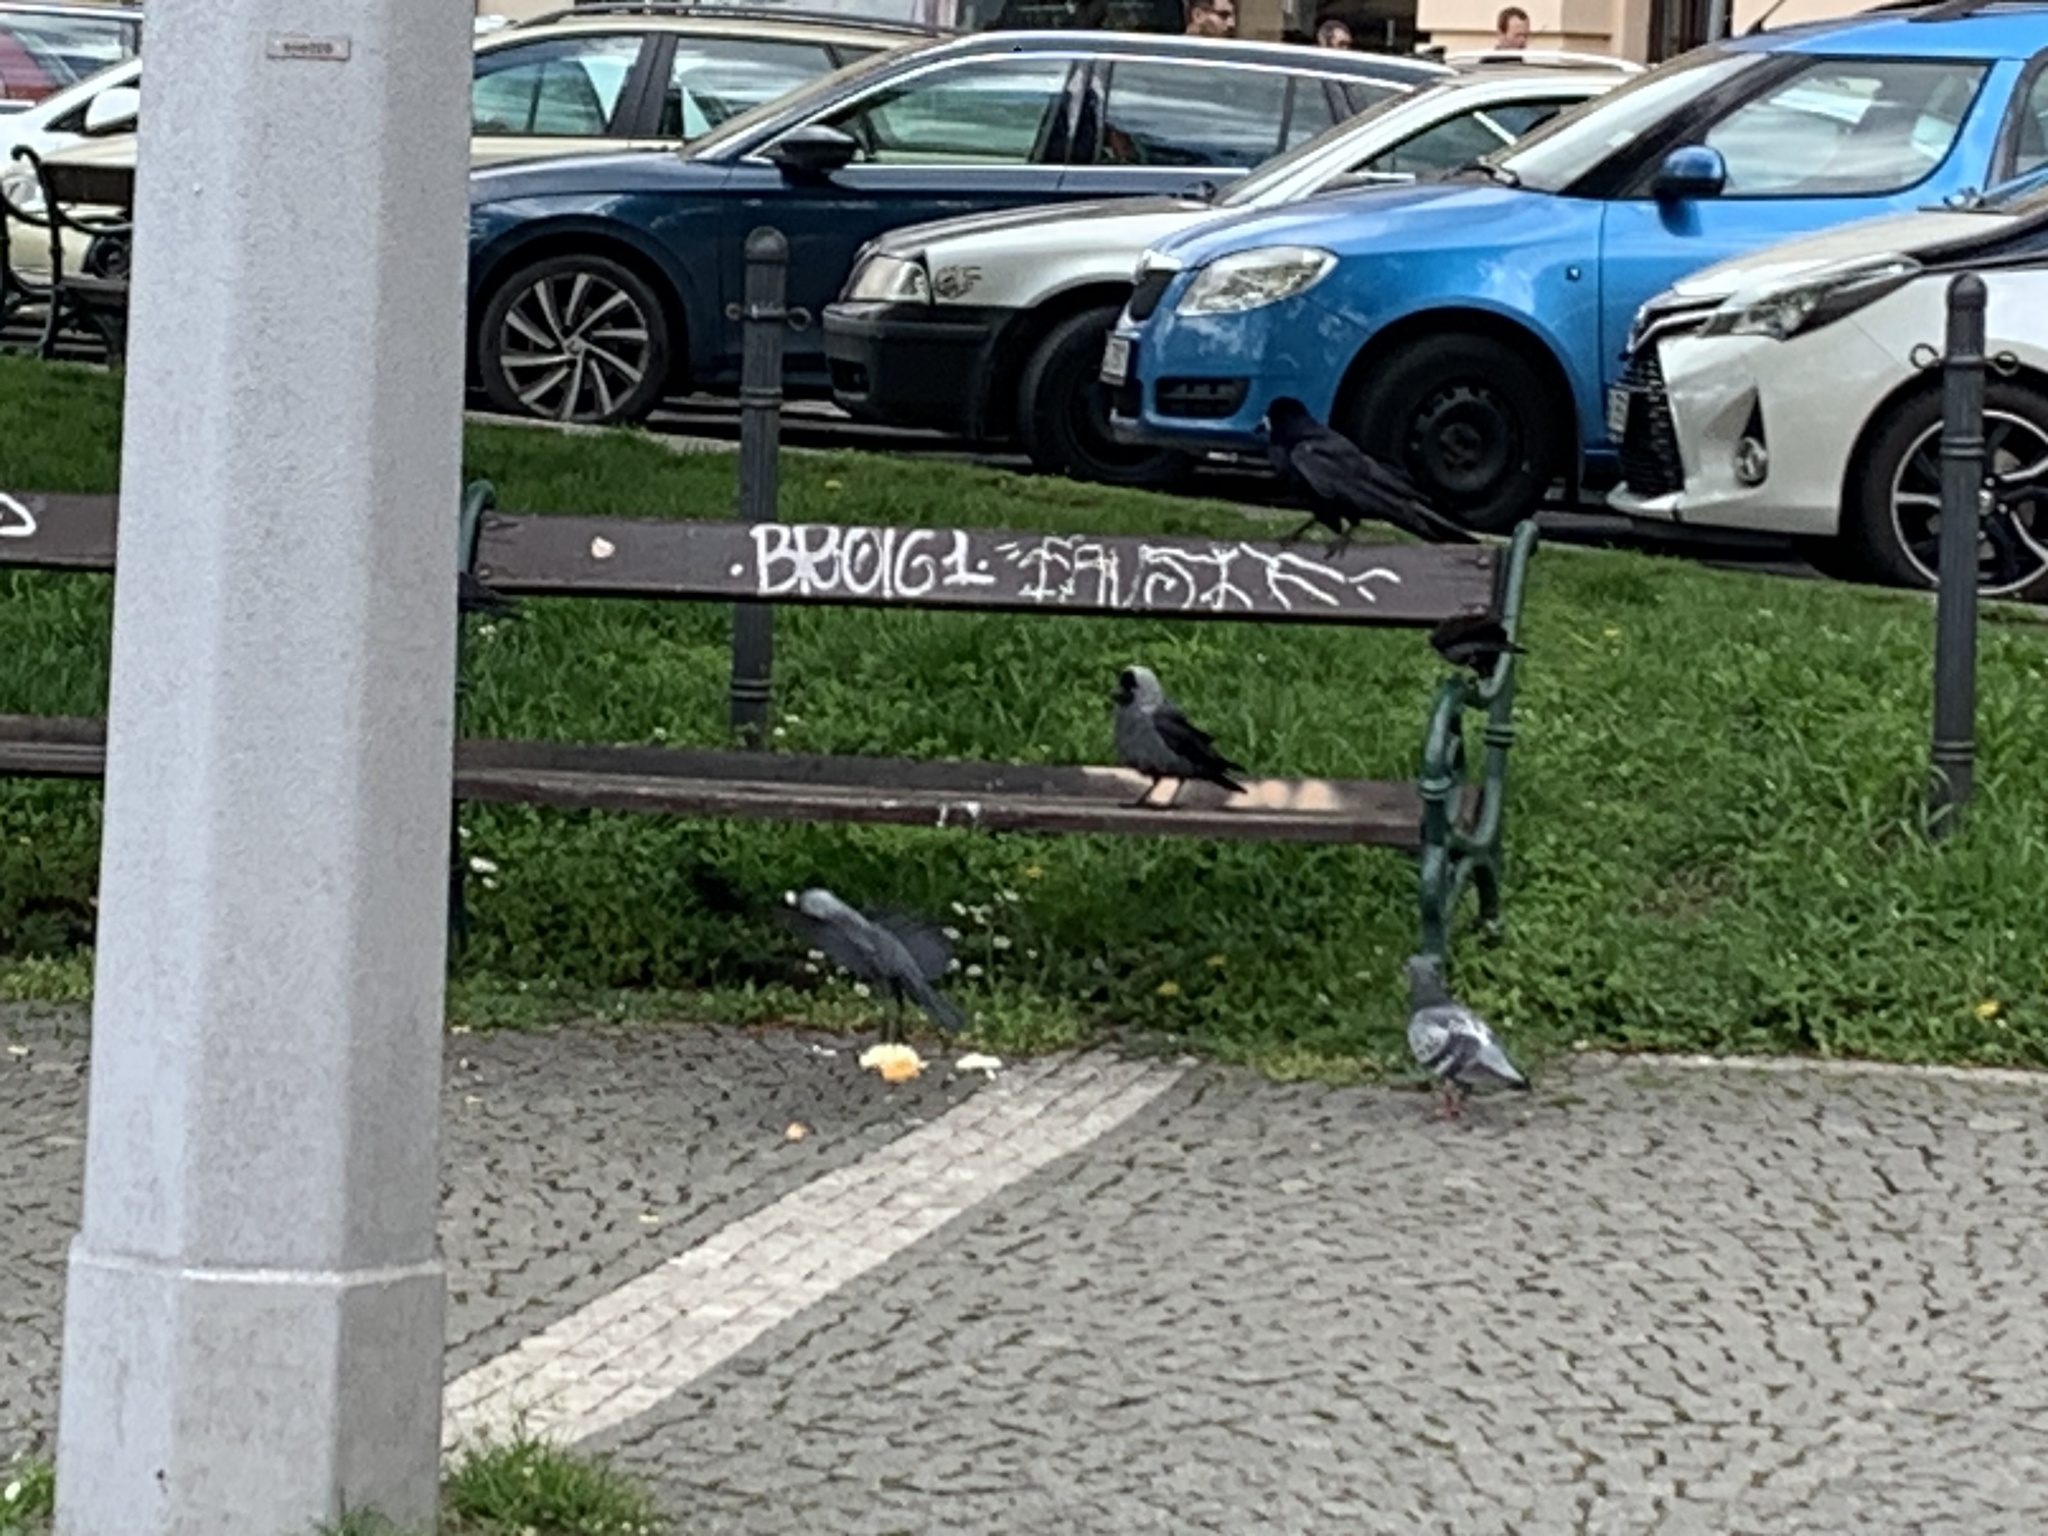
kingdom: Animalia
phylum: Chordata
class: Aves
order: Passeriformes
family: Corvidae
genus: Corvus
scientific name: Corvus frugilegus
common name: Rook
